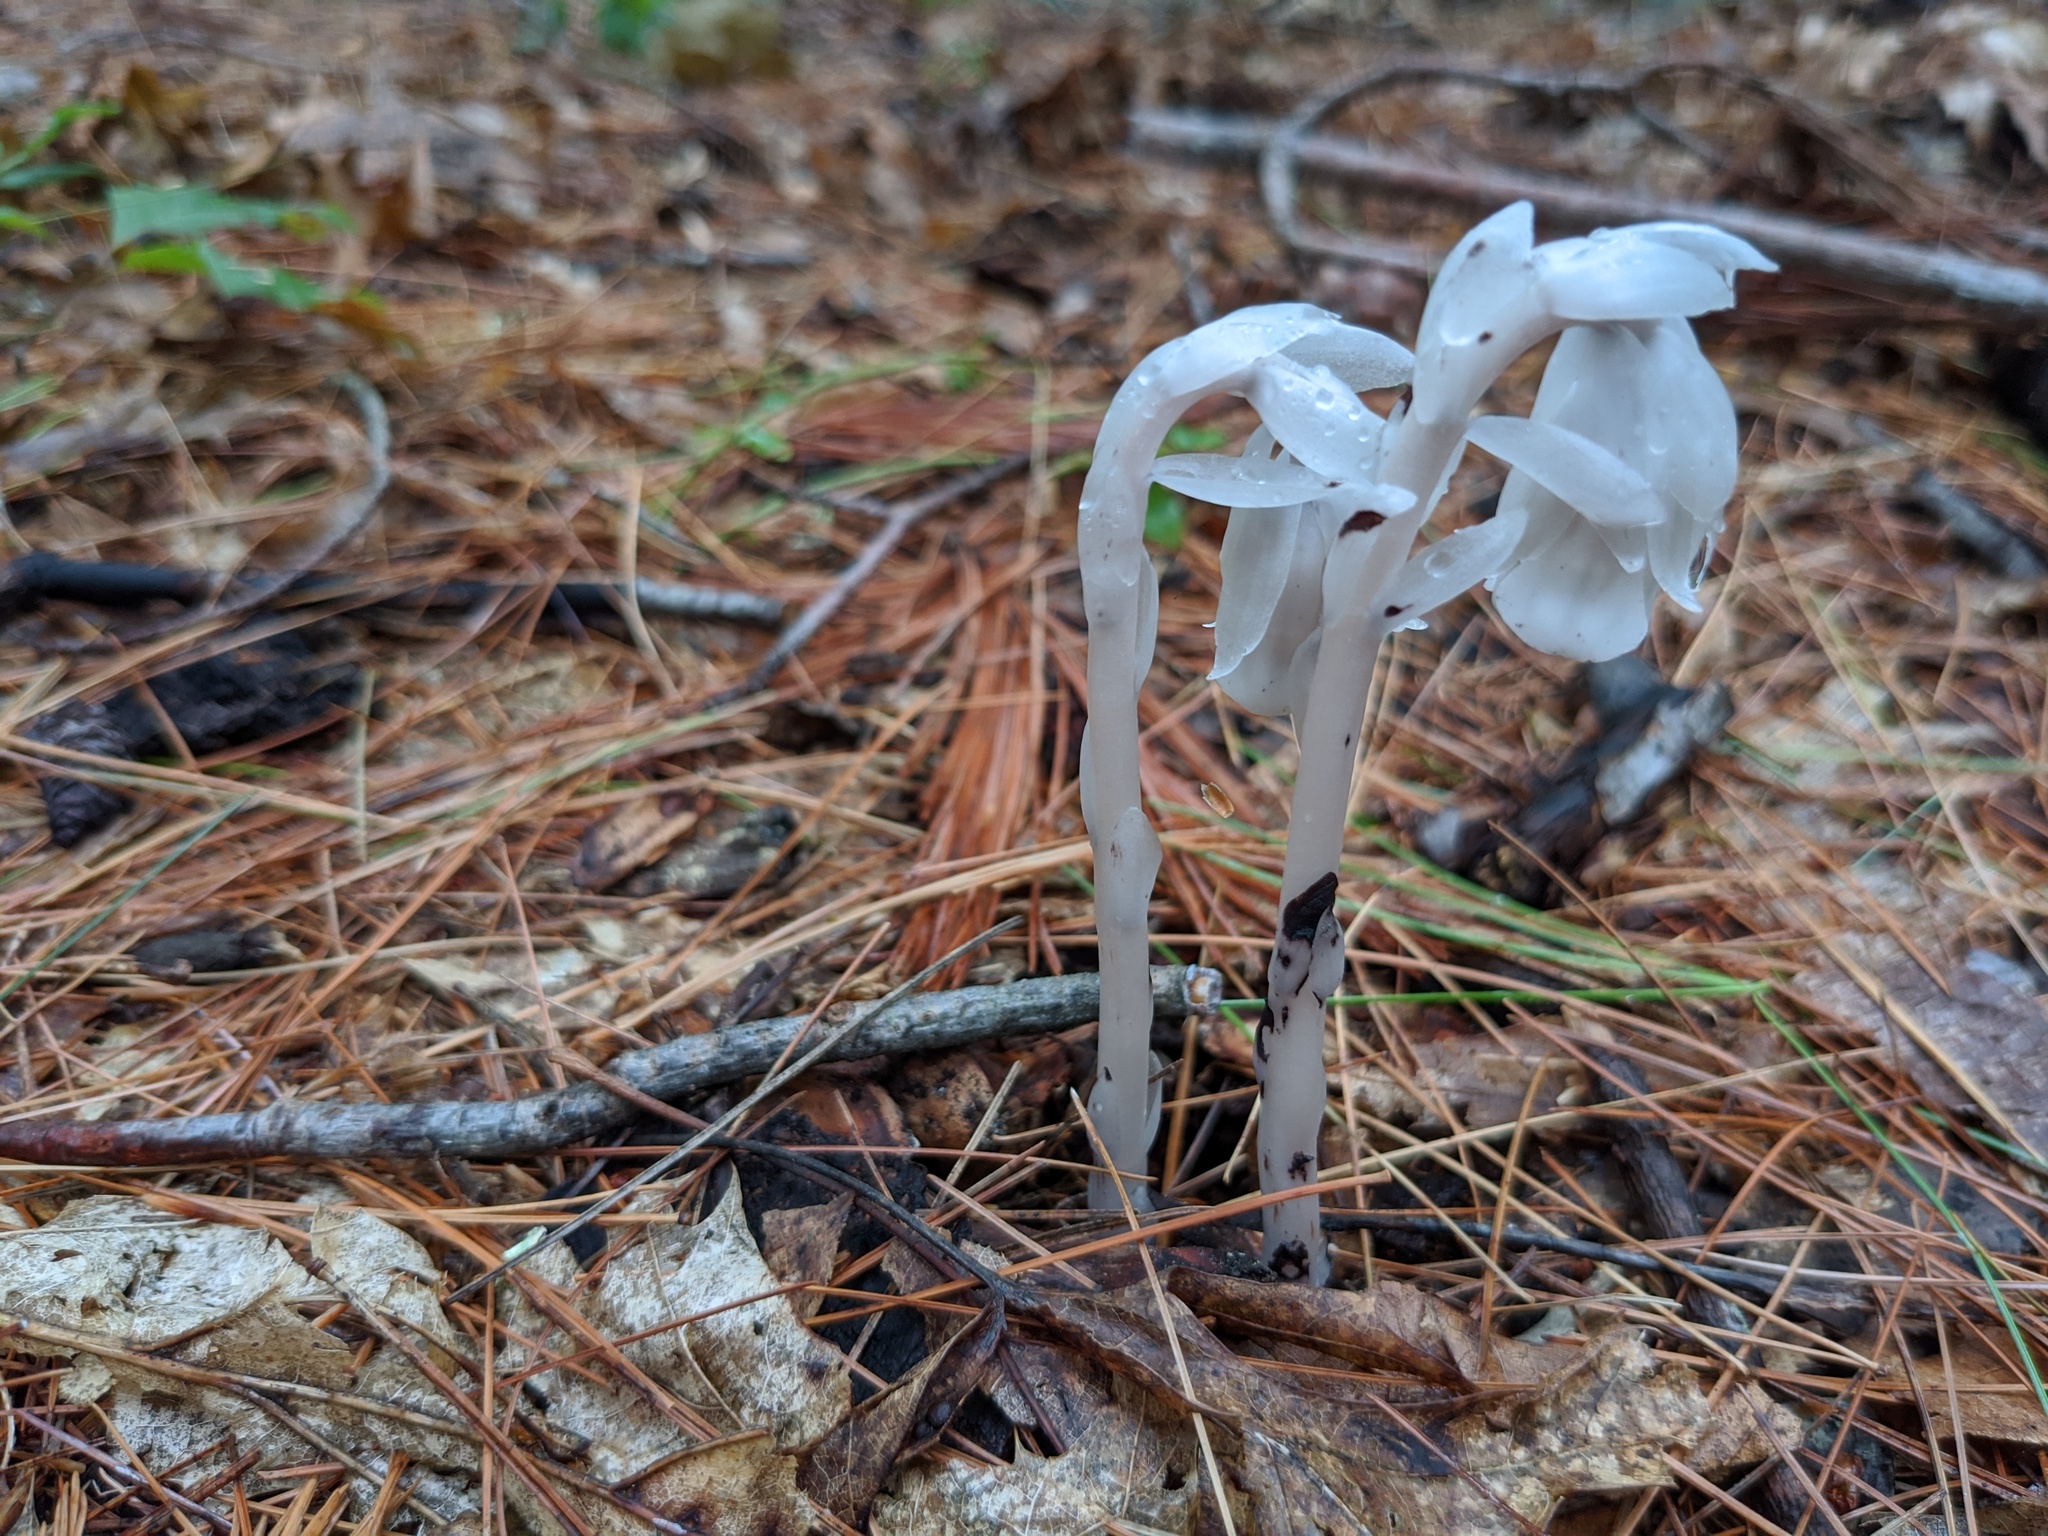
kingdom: Plantae
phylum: Tracheophyta
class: Magnoliopsida
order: Ericales
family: Ericaceae
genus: Monotropa
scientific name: Monotropa uniflora
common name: Convulsion root
